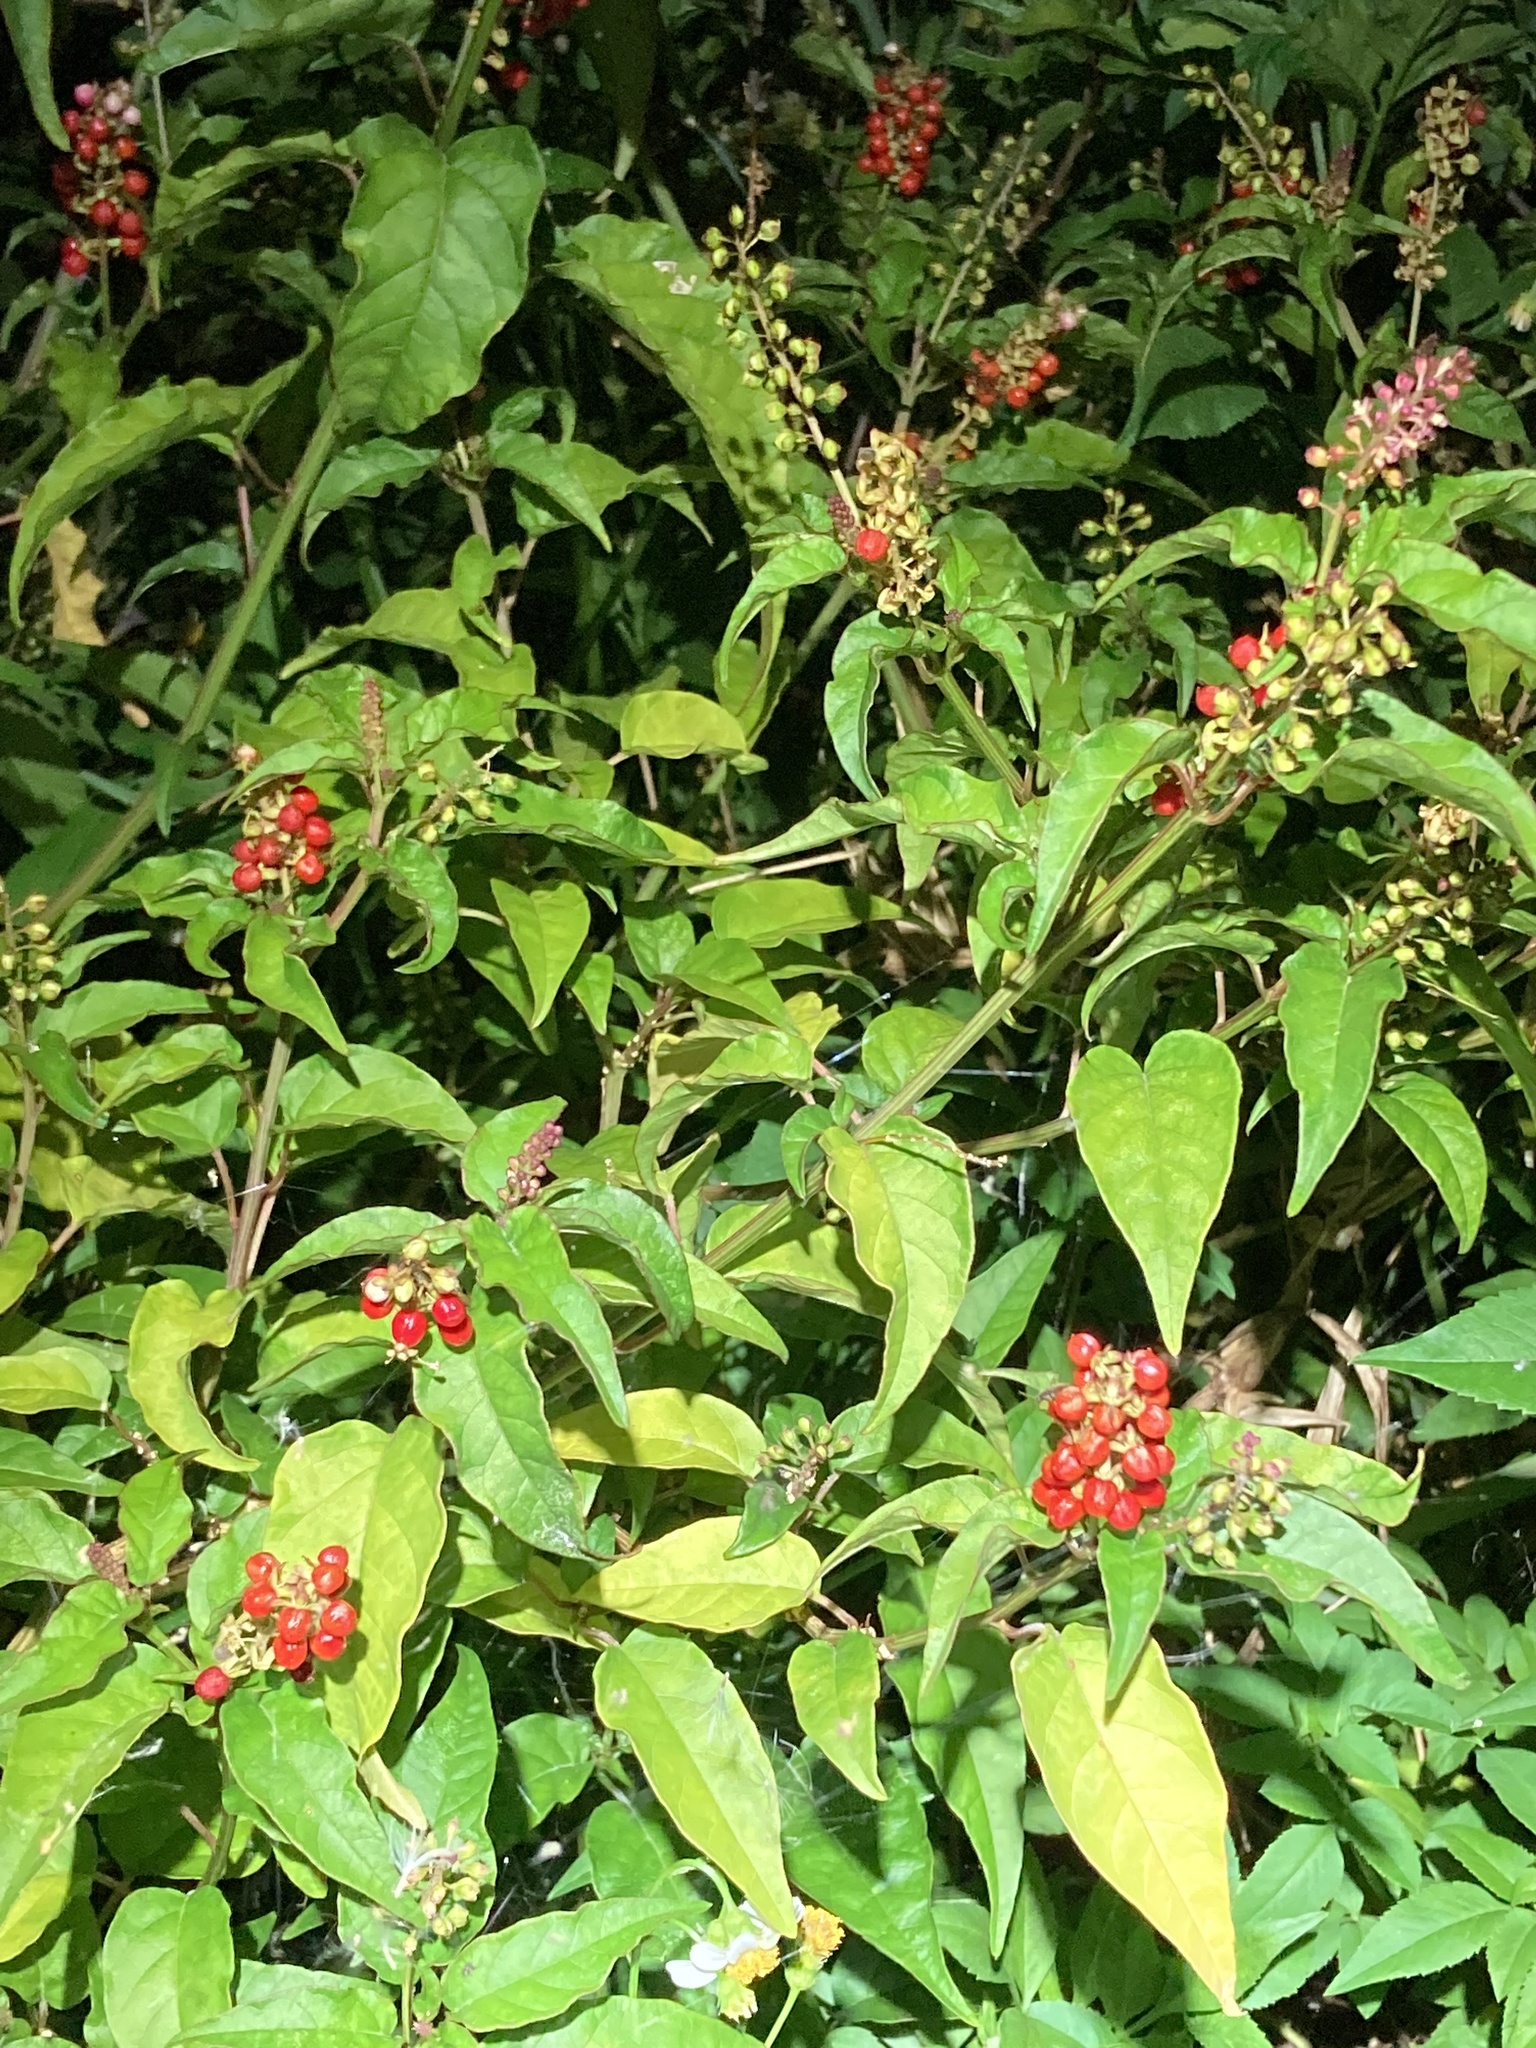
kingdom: Plantae
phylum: Tracheophyta
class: Magnoliopsida
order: Caryophyllales
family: Phytolaccaceae
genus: Rivina
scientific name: Rivina humilis
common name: Rougeplant
